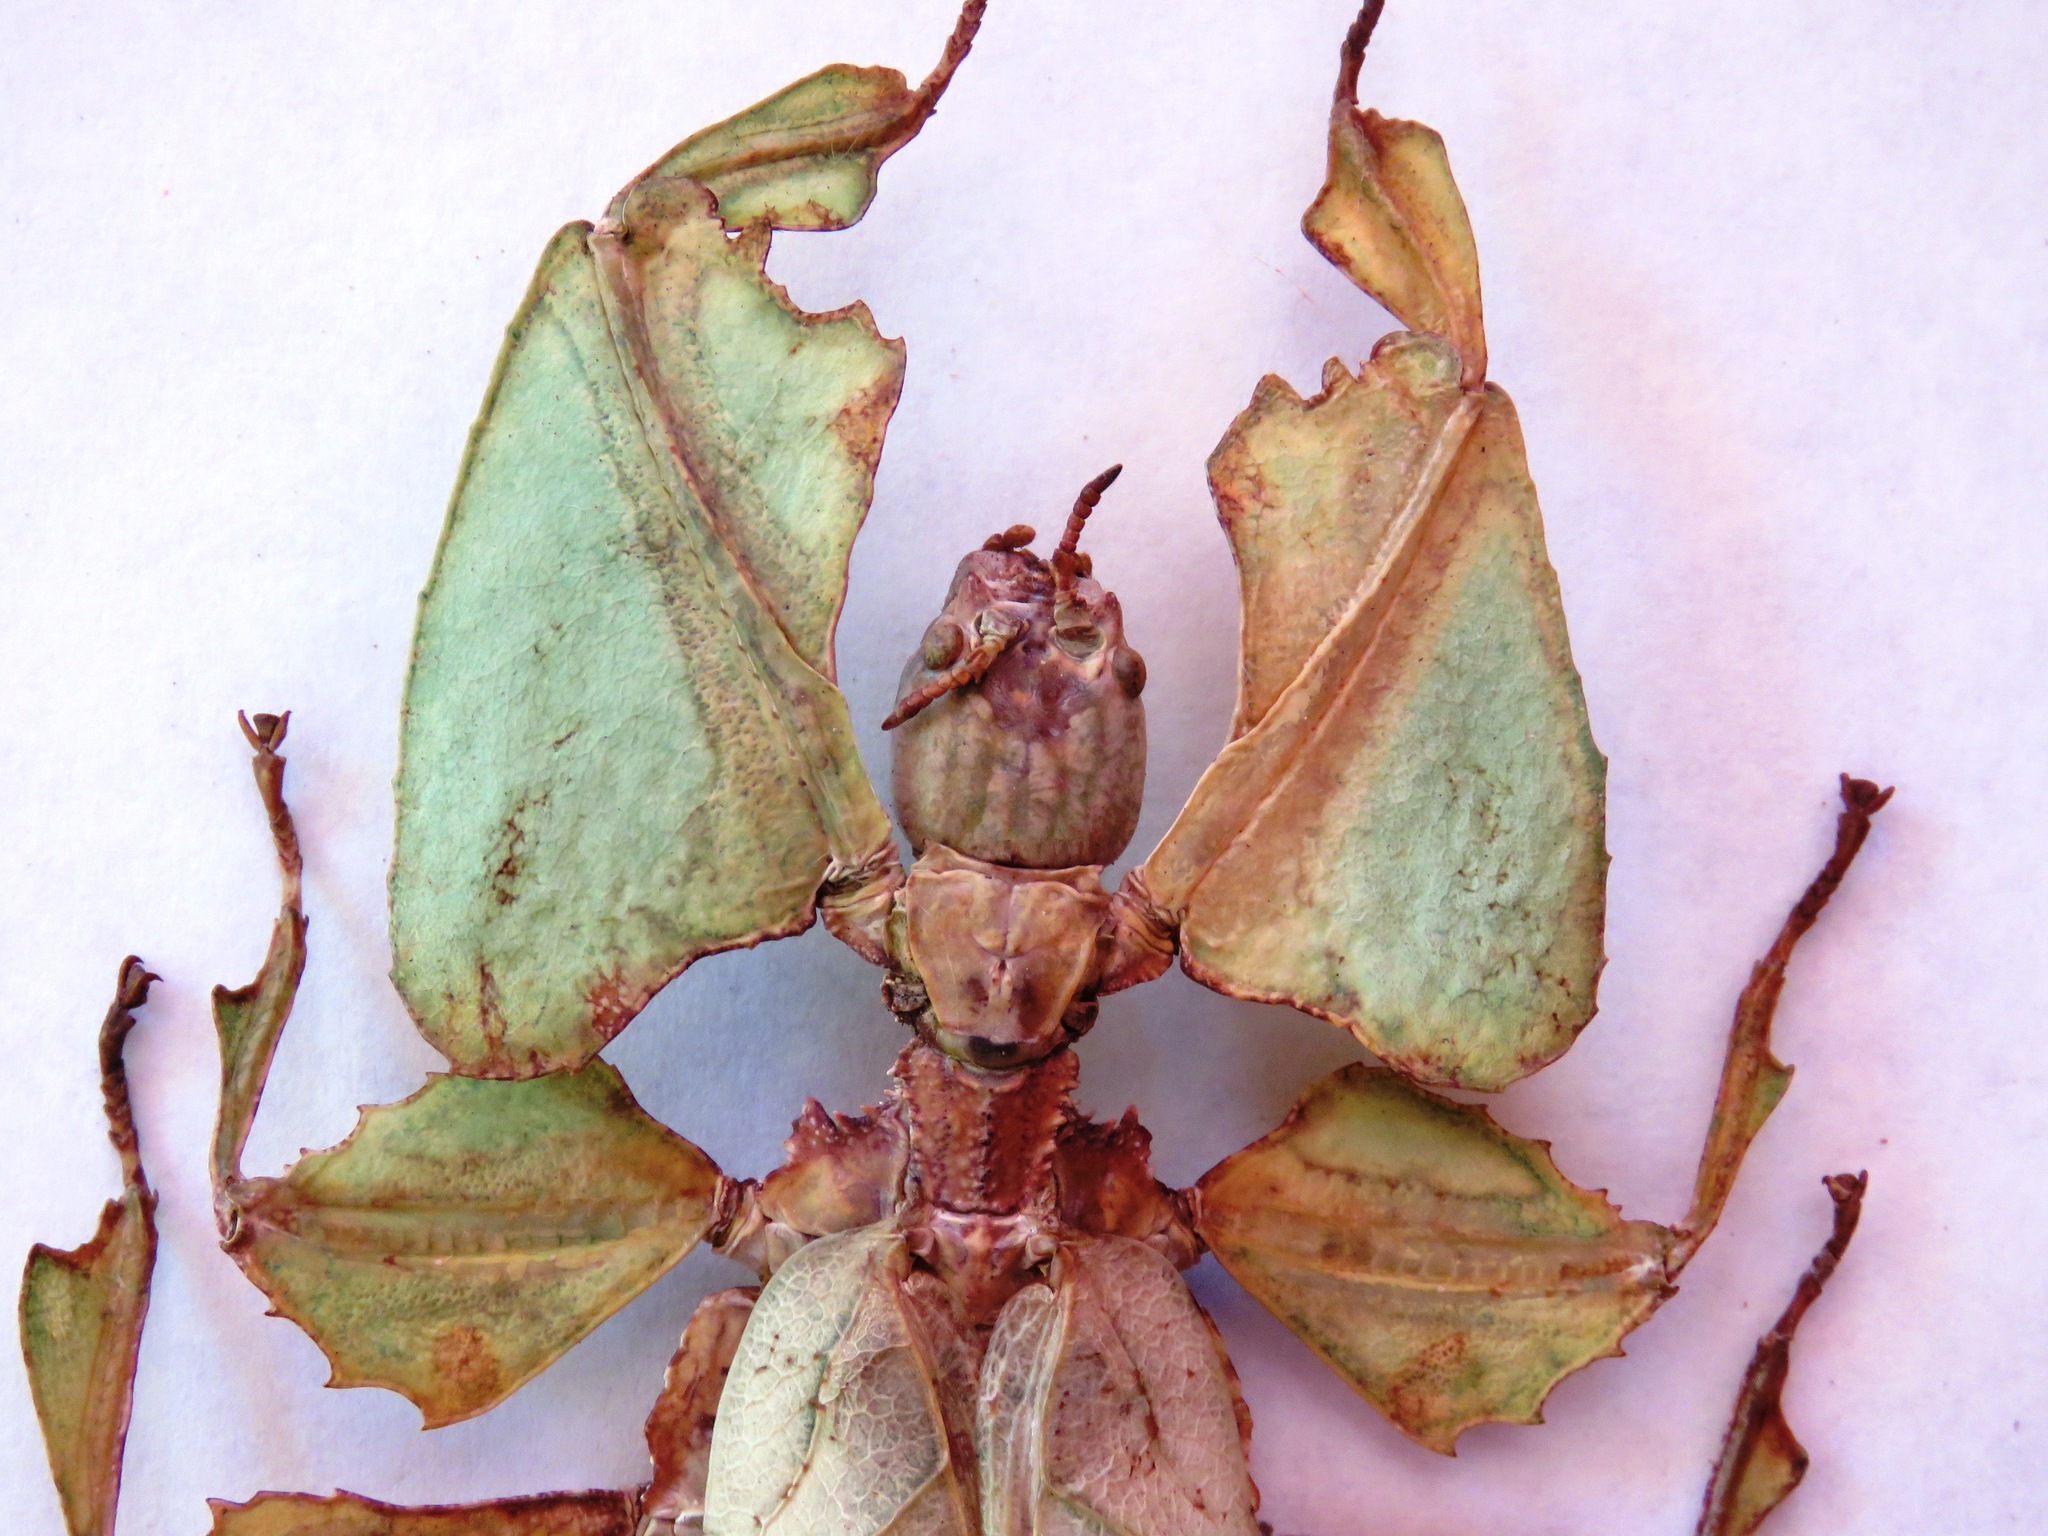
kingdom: Animalia
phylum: Arthropoda
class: Insecta
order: Phasmida
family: Phylliidae
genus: Pulchriphyllium
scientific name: Pulchriphyllium giganteum
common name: Giant malaysian leaf insect
